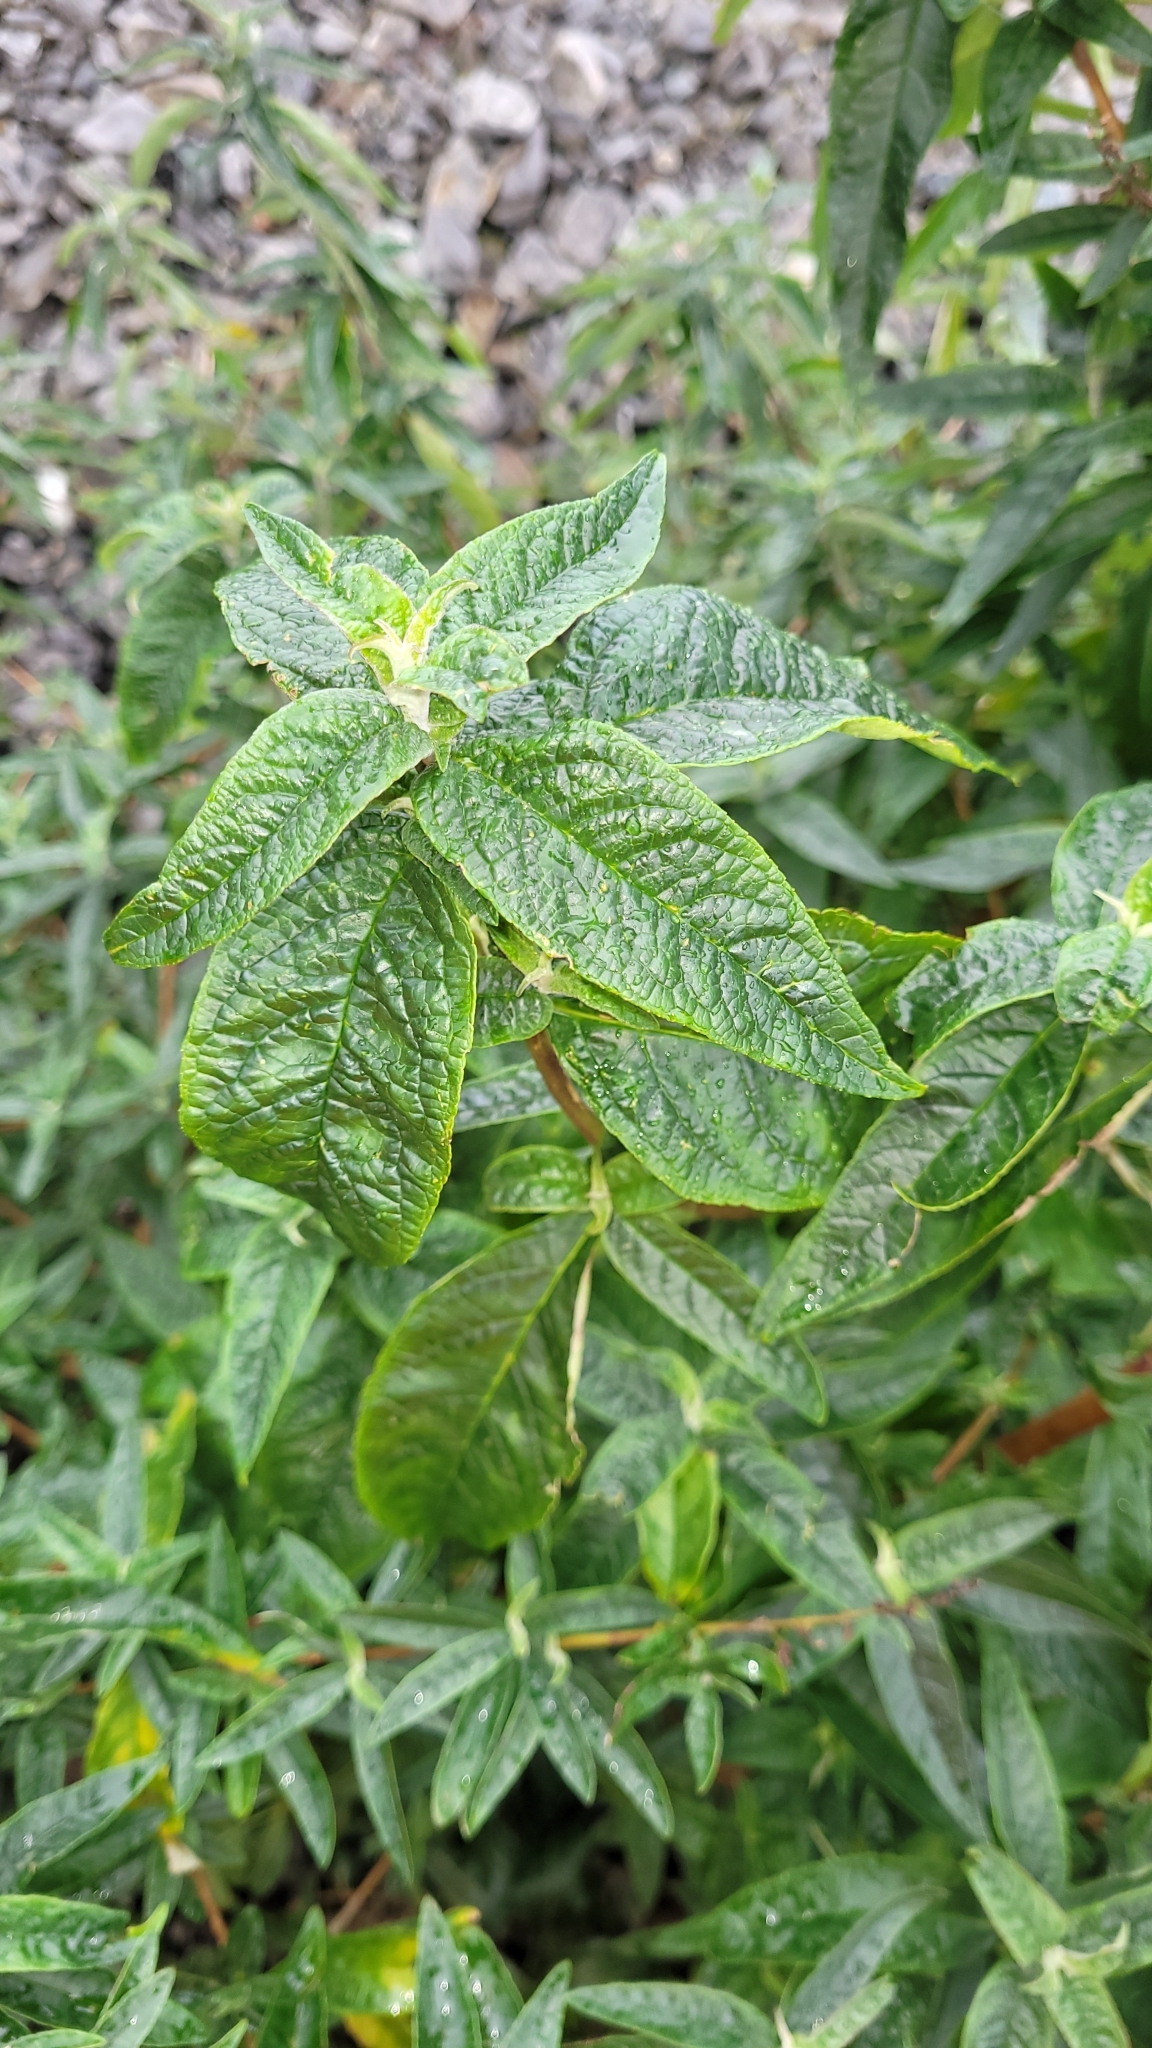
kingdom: Plantae
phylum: Tracheophyta
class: Magnoliopsida
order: Lamiales
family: Scrophulariaceae
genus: Buddleja
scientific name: Buddleja davidii
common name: Butterfly-bush
